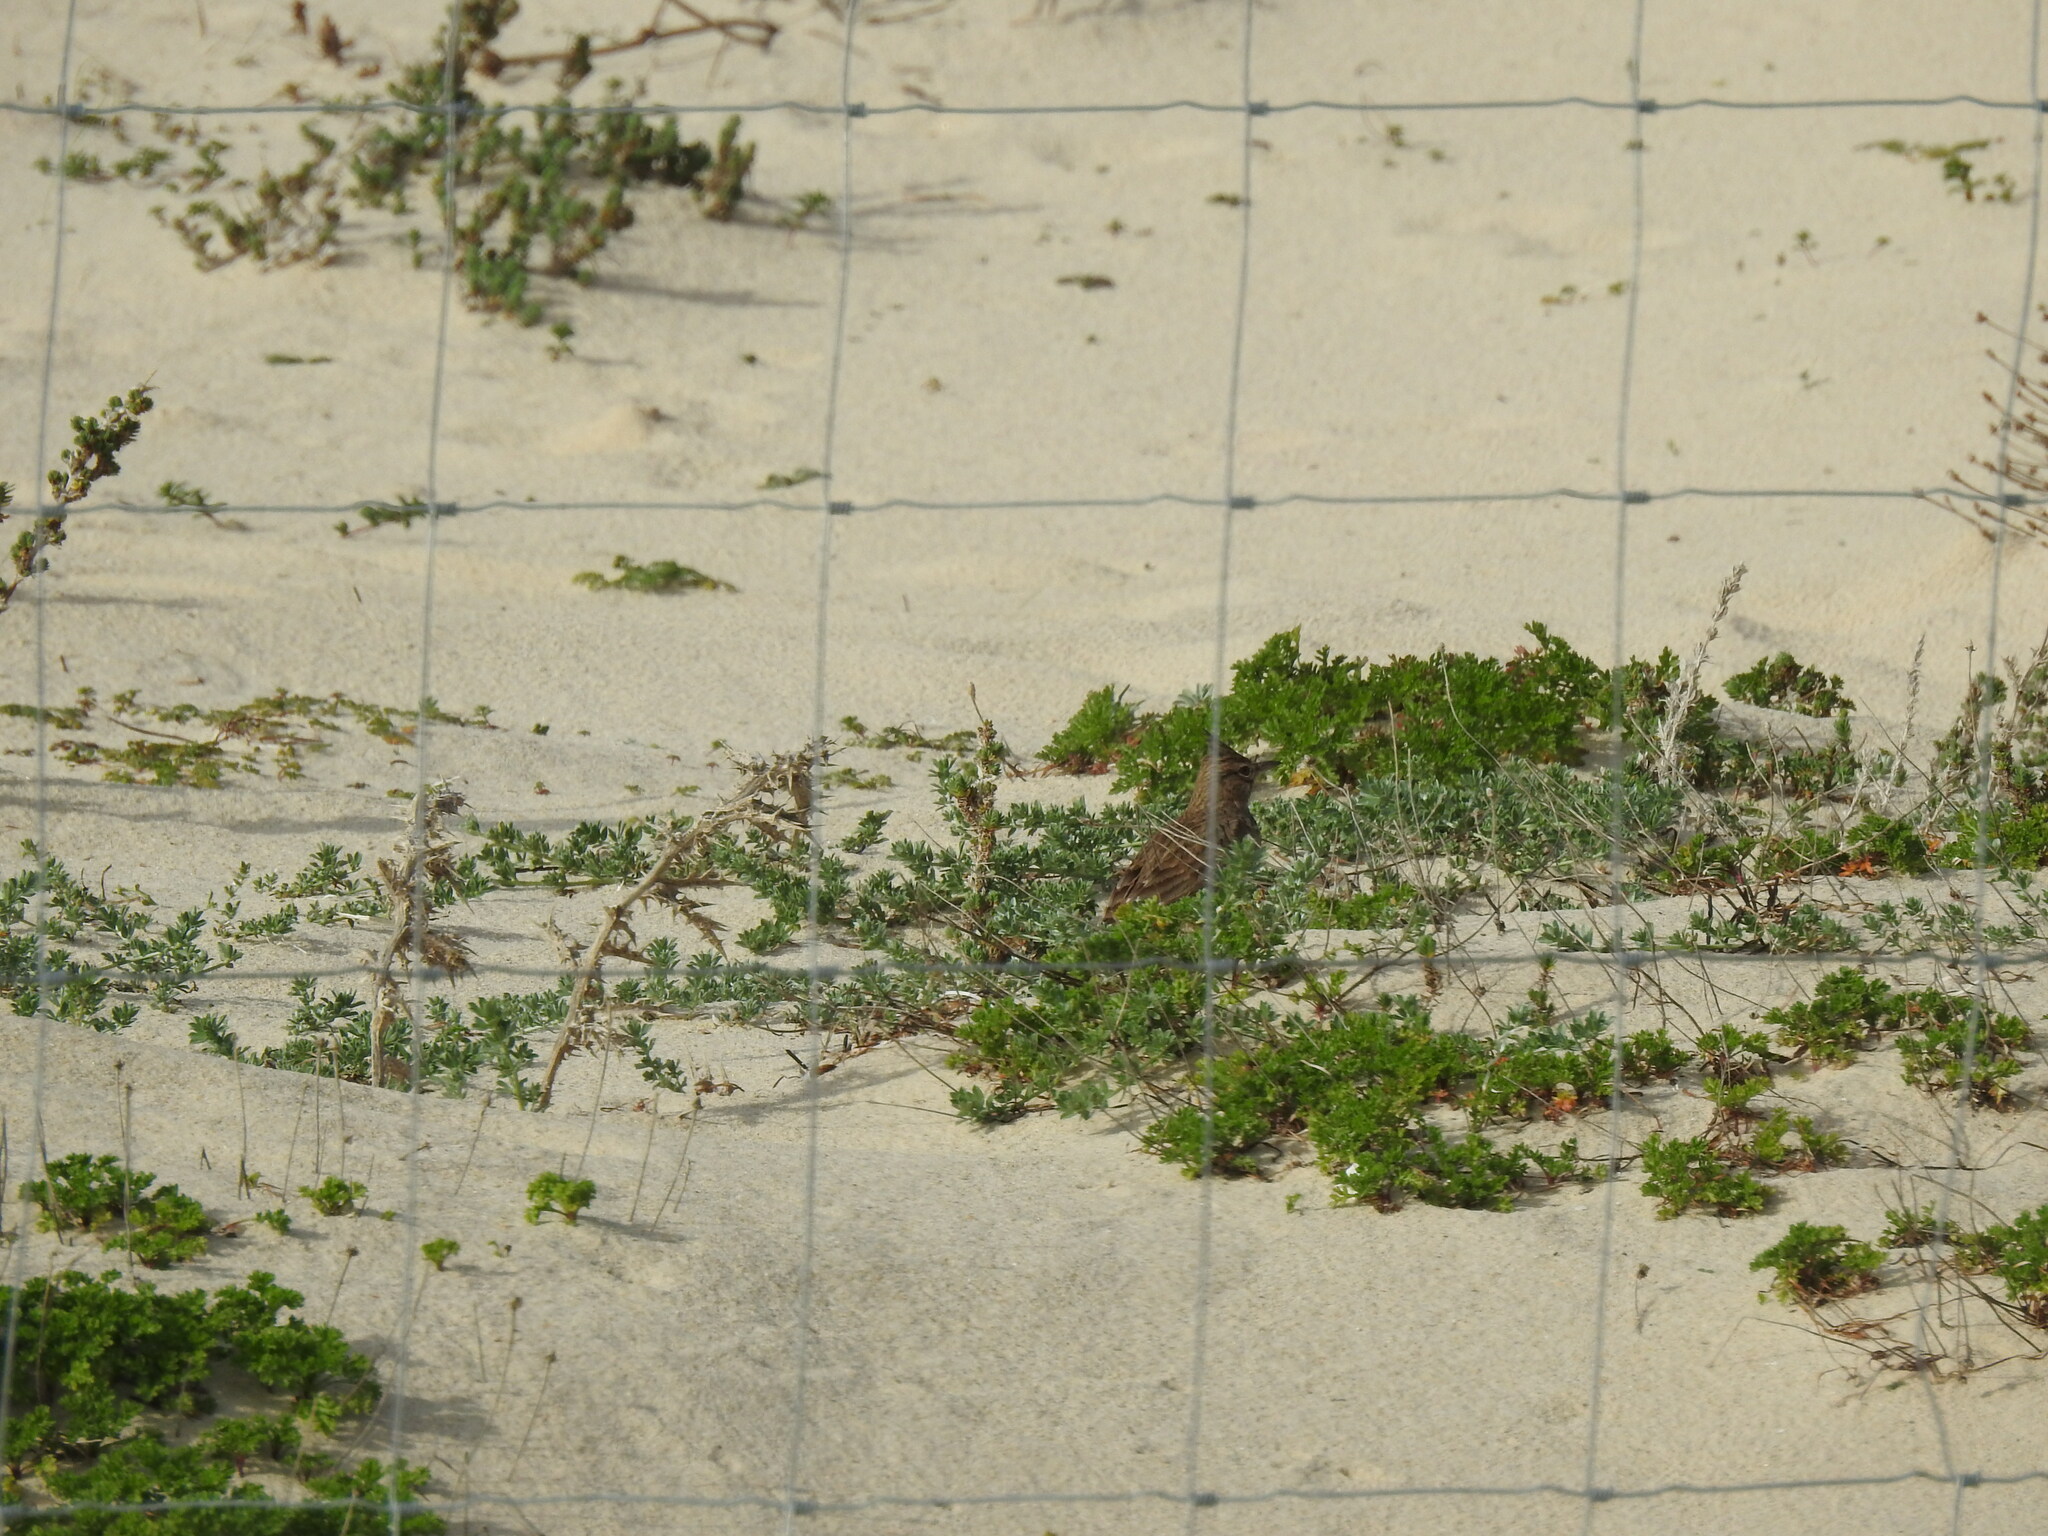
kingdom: Animalia
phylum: Chordata
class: Aves
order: Passeriformes
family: Alaudidae
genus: Galerida
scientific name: Galerida cristata
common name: Crested lark
